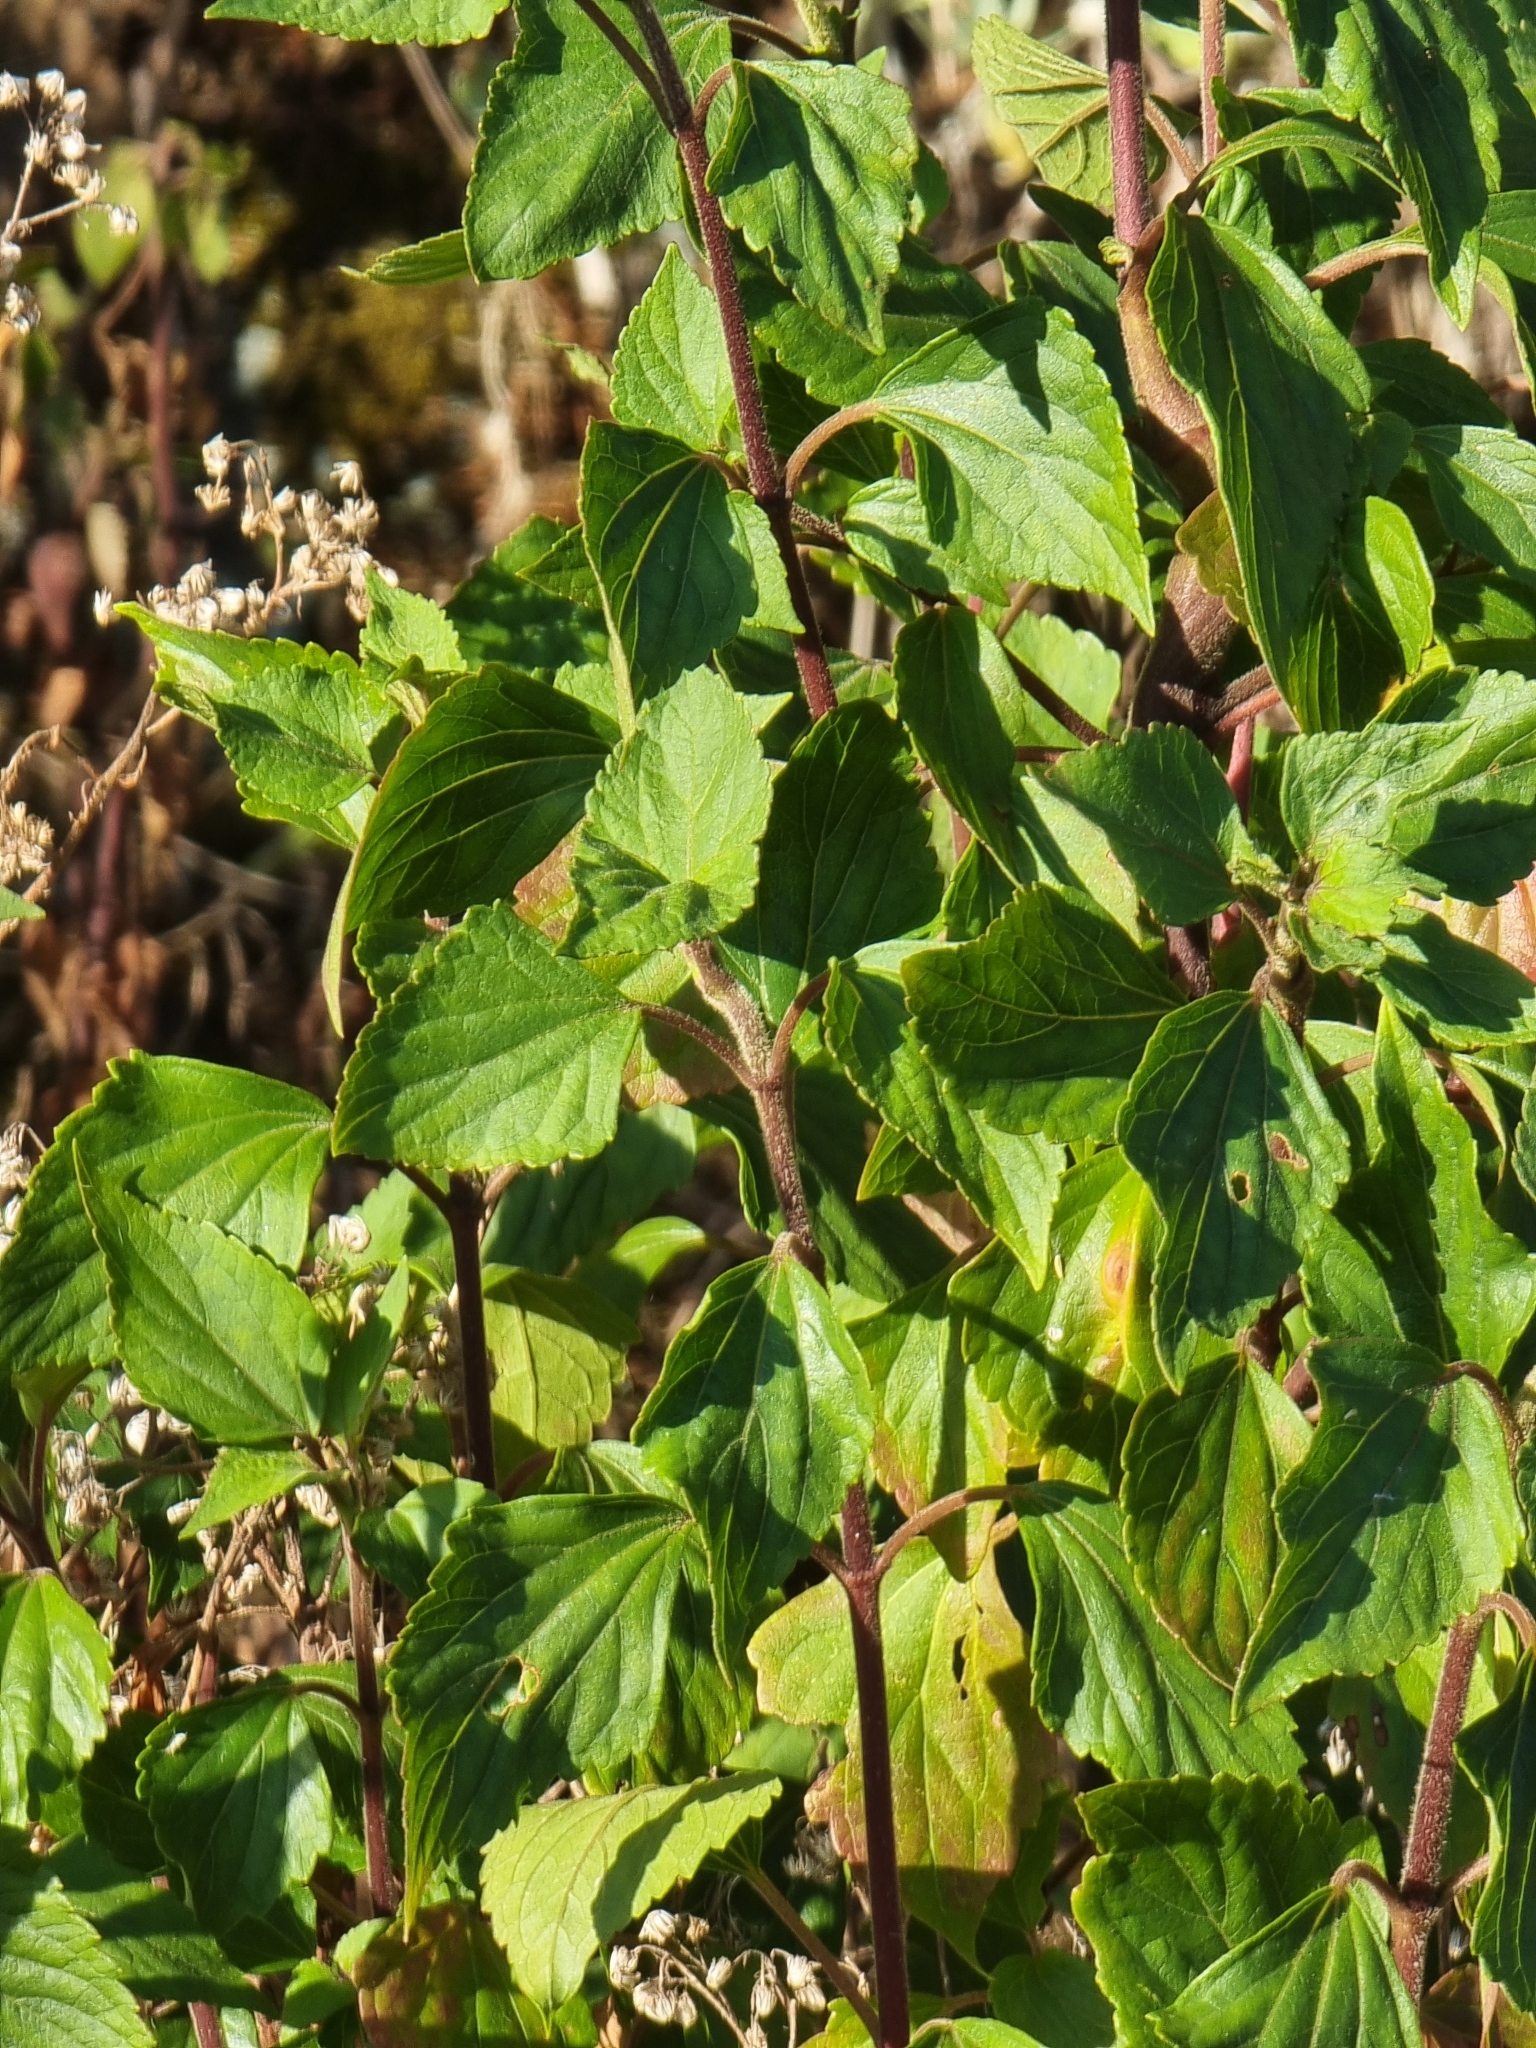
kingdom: Plantae
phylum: Tracheophyta
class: Magnoliopsida
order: Asterales
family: Asteraceae
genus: Ageratina
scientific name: Ageratina adenophora
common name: Sticky snakeroot
